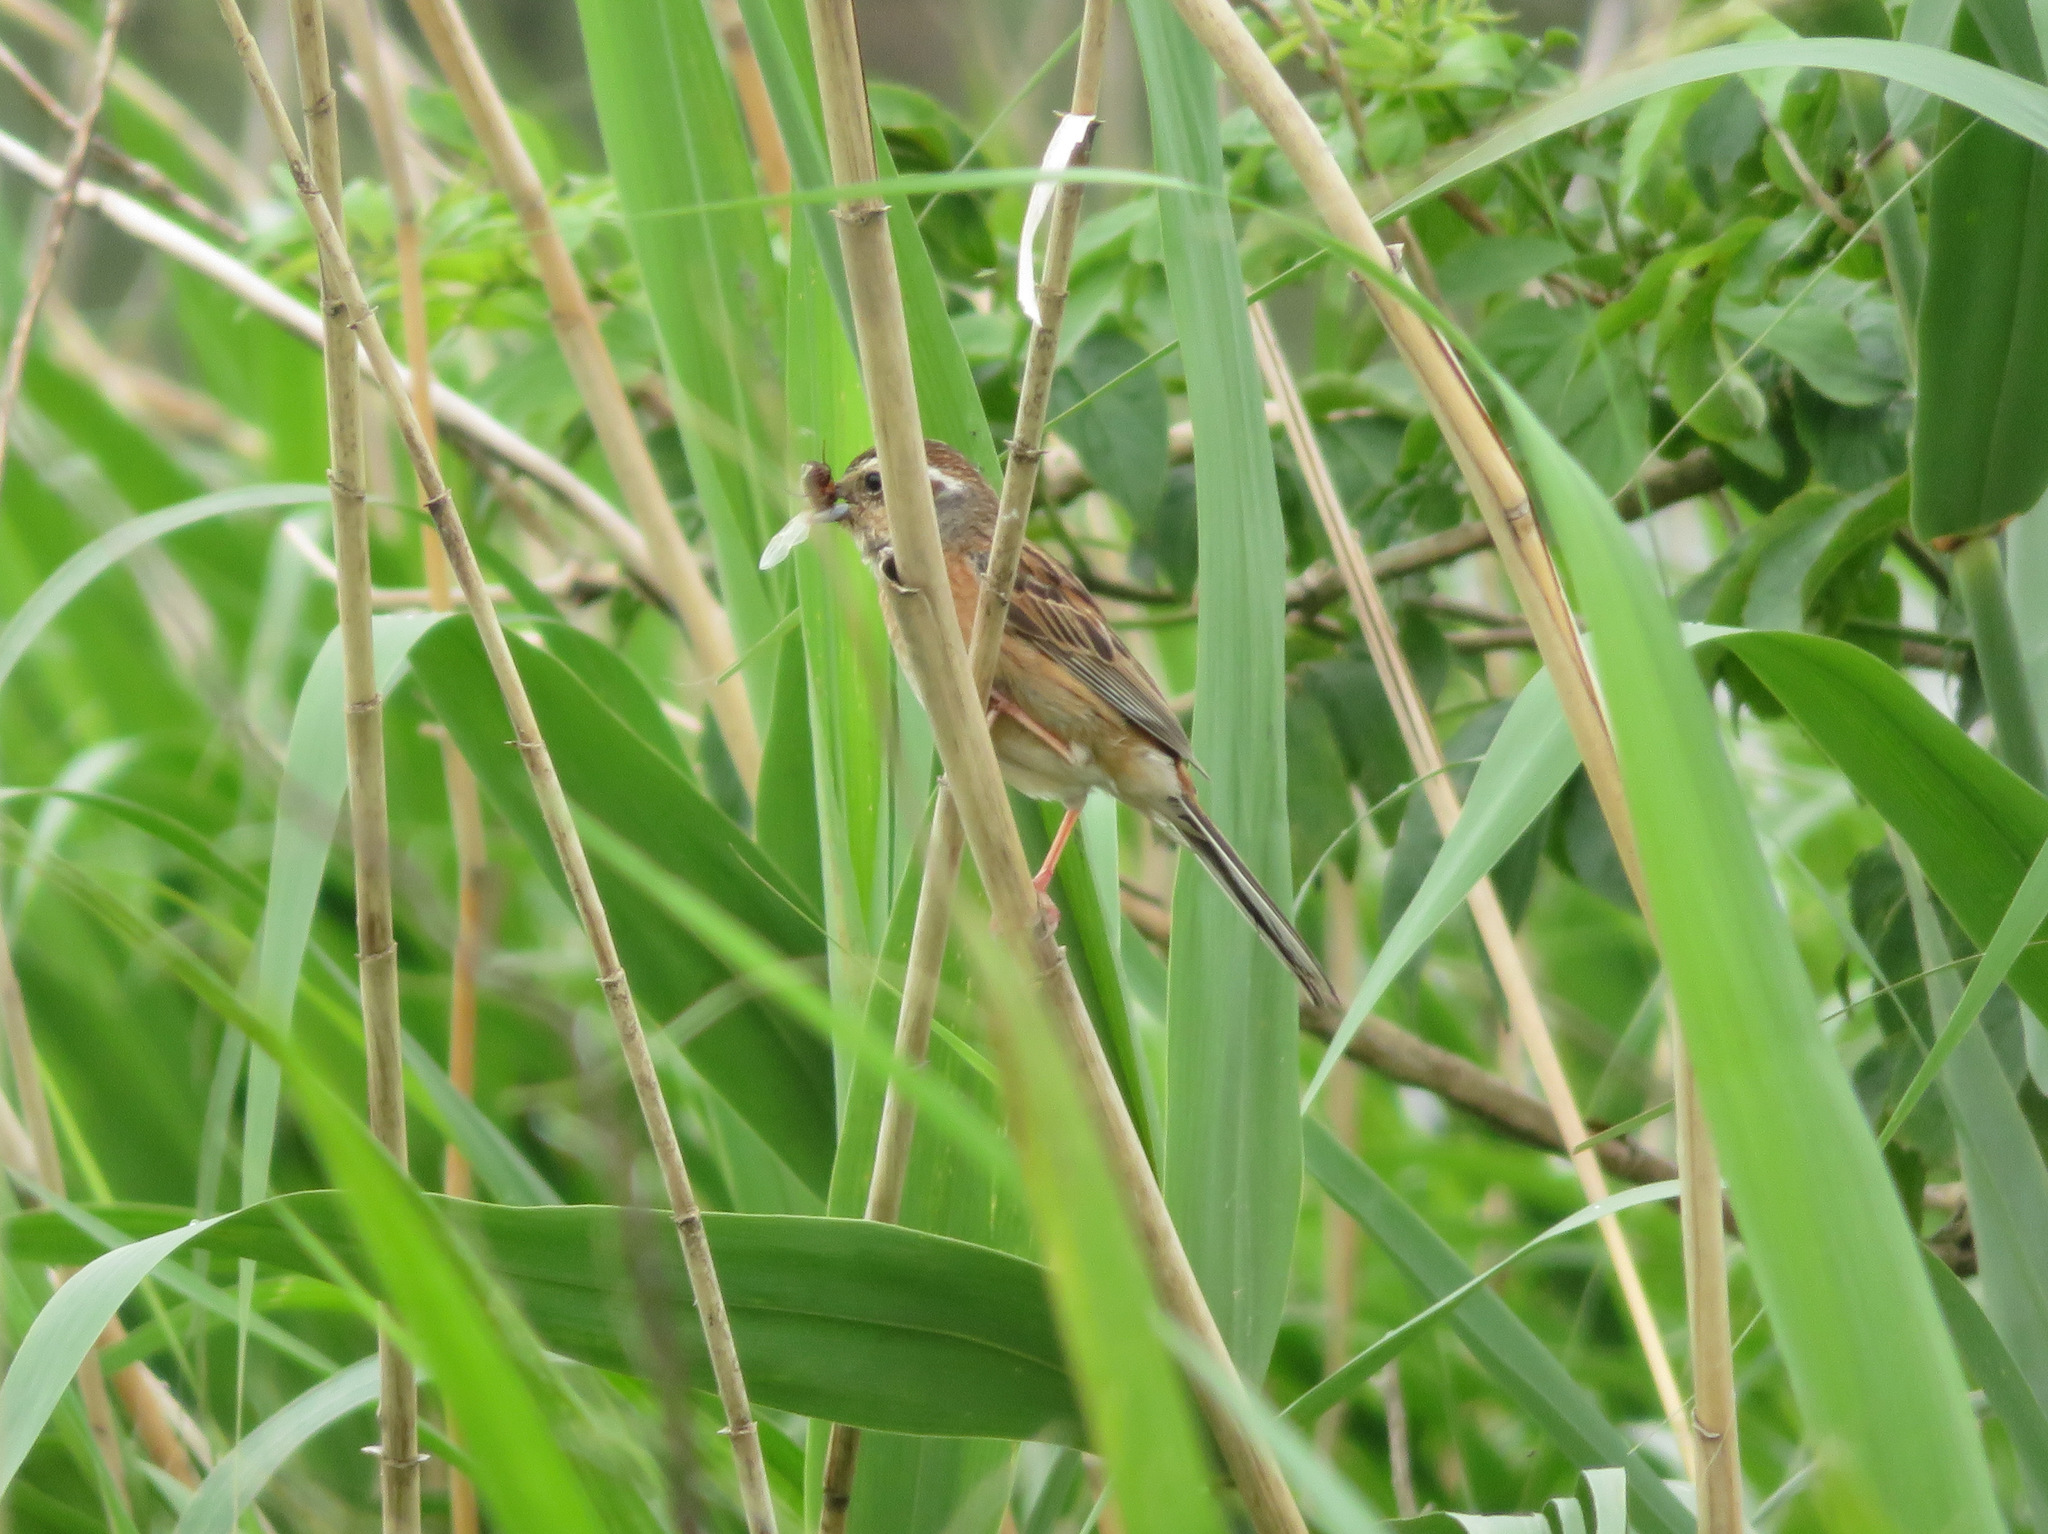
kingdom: Animalia
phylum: Chordata
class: Aves
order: Passeriformes
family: Emberizidae
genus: Emberiza
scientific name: Emberiza cioides
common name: Meadow bunting
